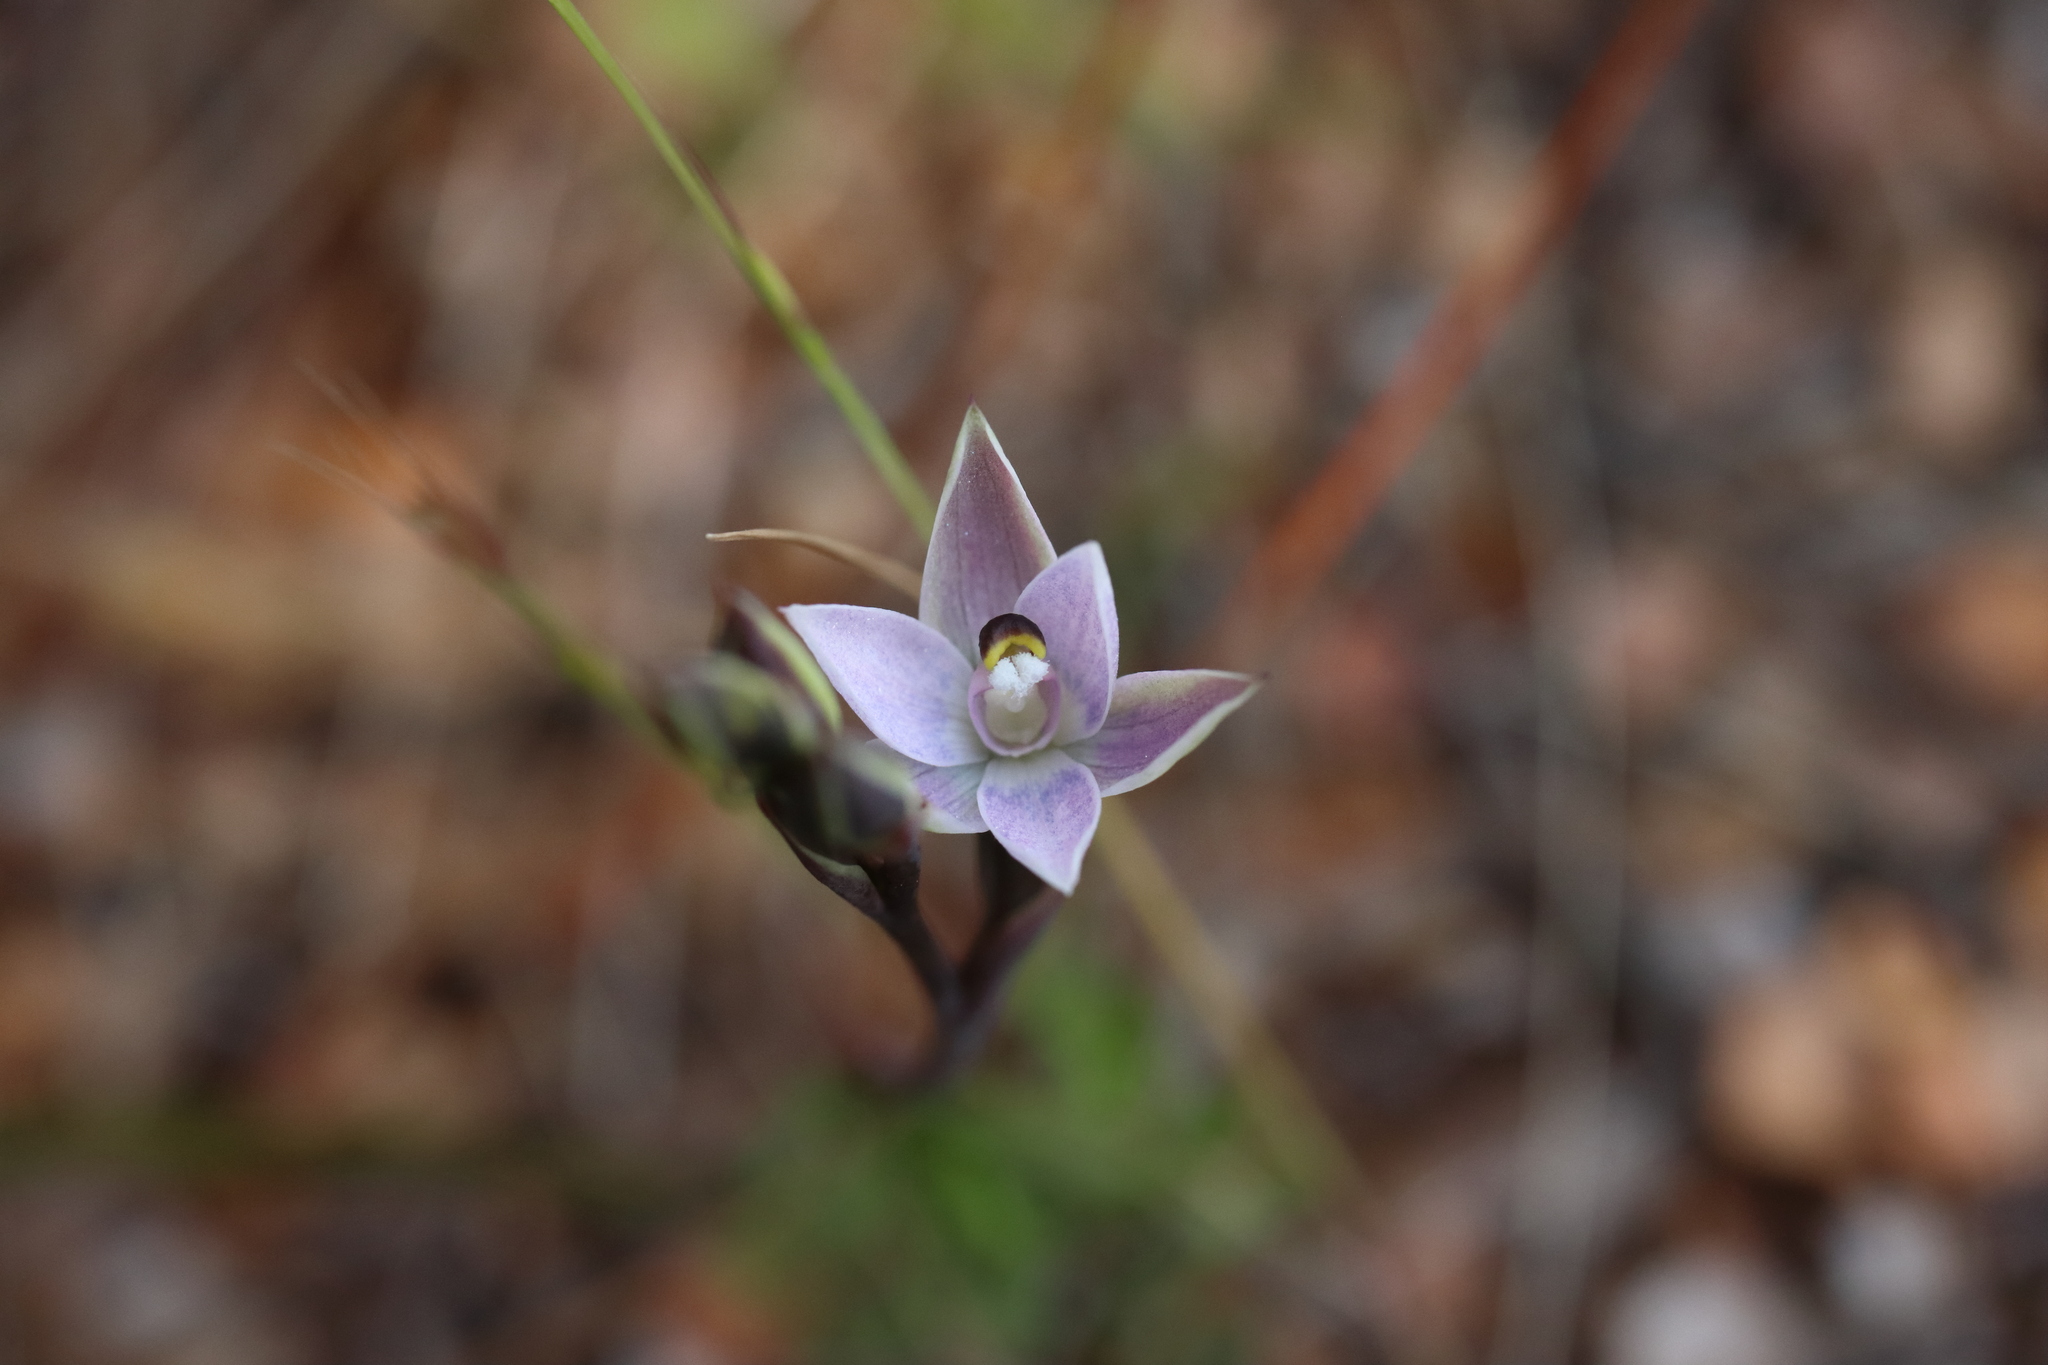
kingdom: Plantae
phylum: Tracheophyta
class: Liliopsida
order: Asparagales
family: Orchidaceae
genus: Thelymitra
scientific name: Thelymitra longifolia
